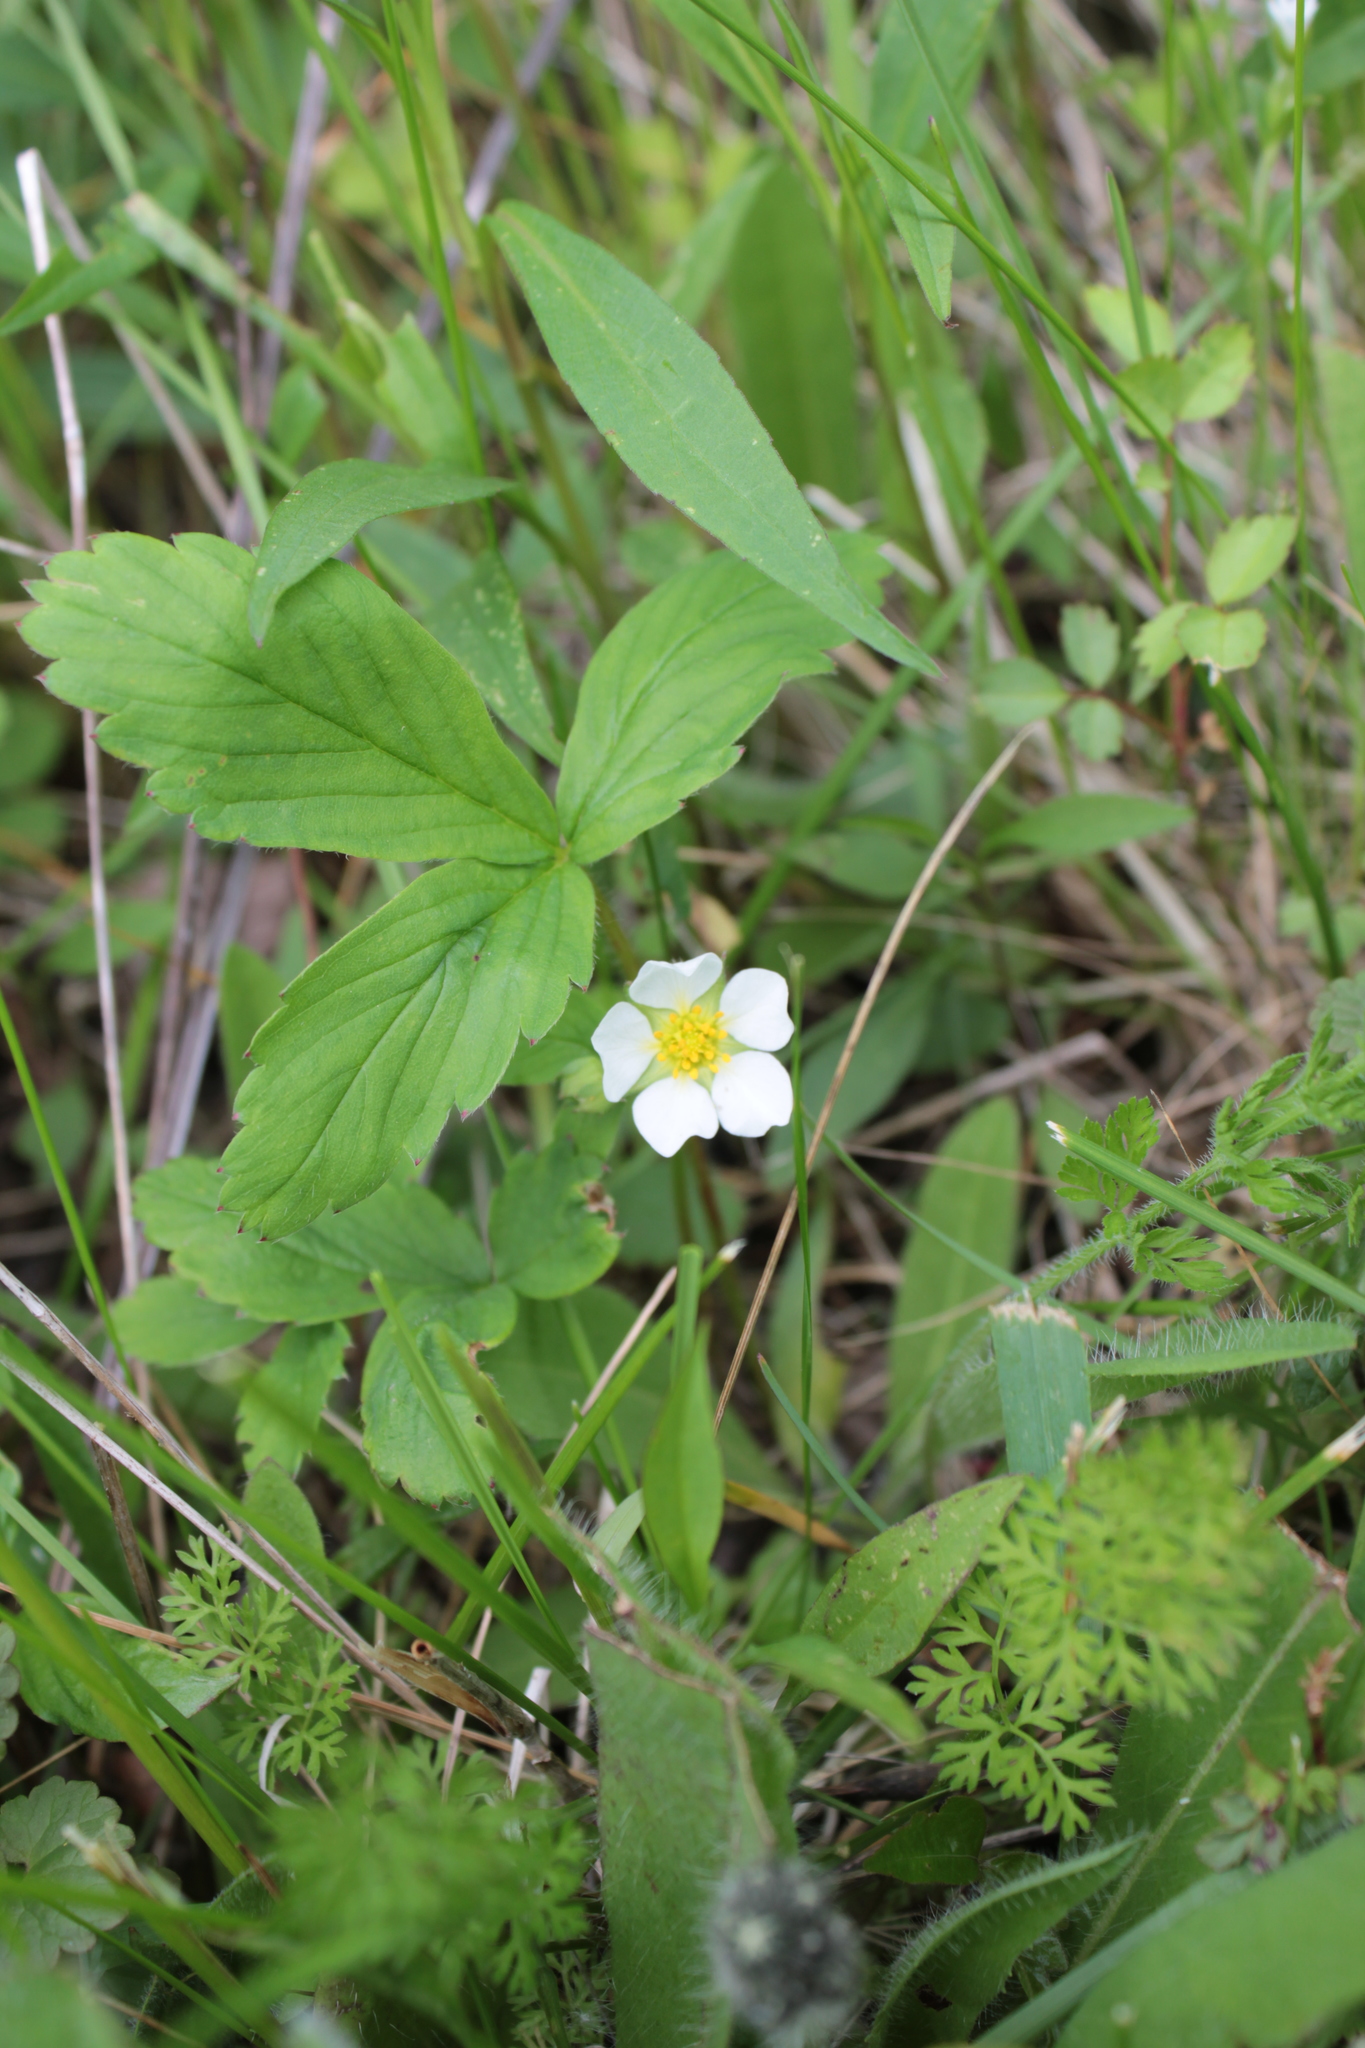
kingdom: Plantae
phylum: Tracheophyta
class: Magnoliopsida
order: Rosales
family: Rosaceae
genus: Fragaria
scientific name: Fragaria virginiana
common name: Thickleaved wild strawberry
